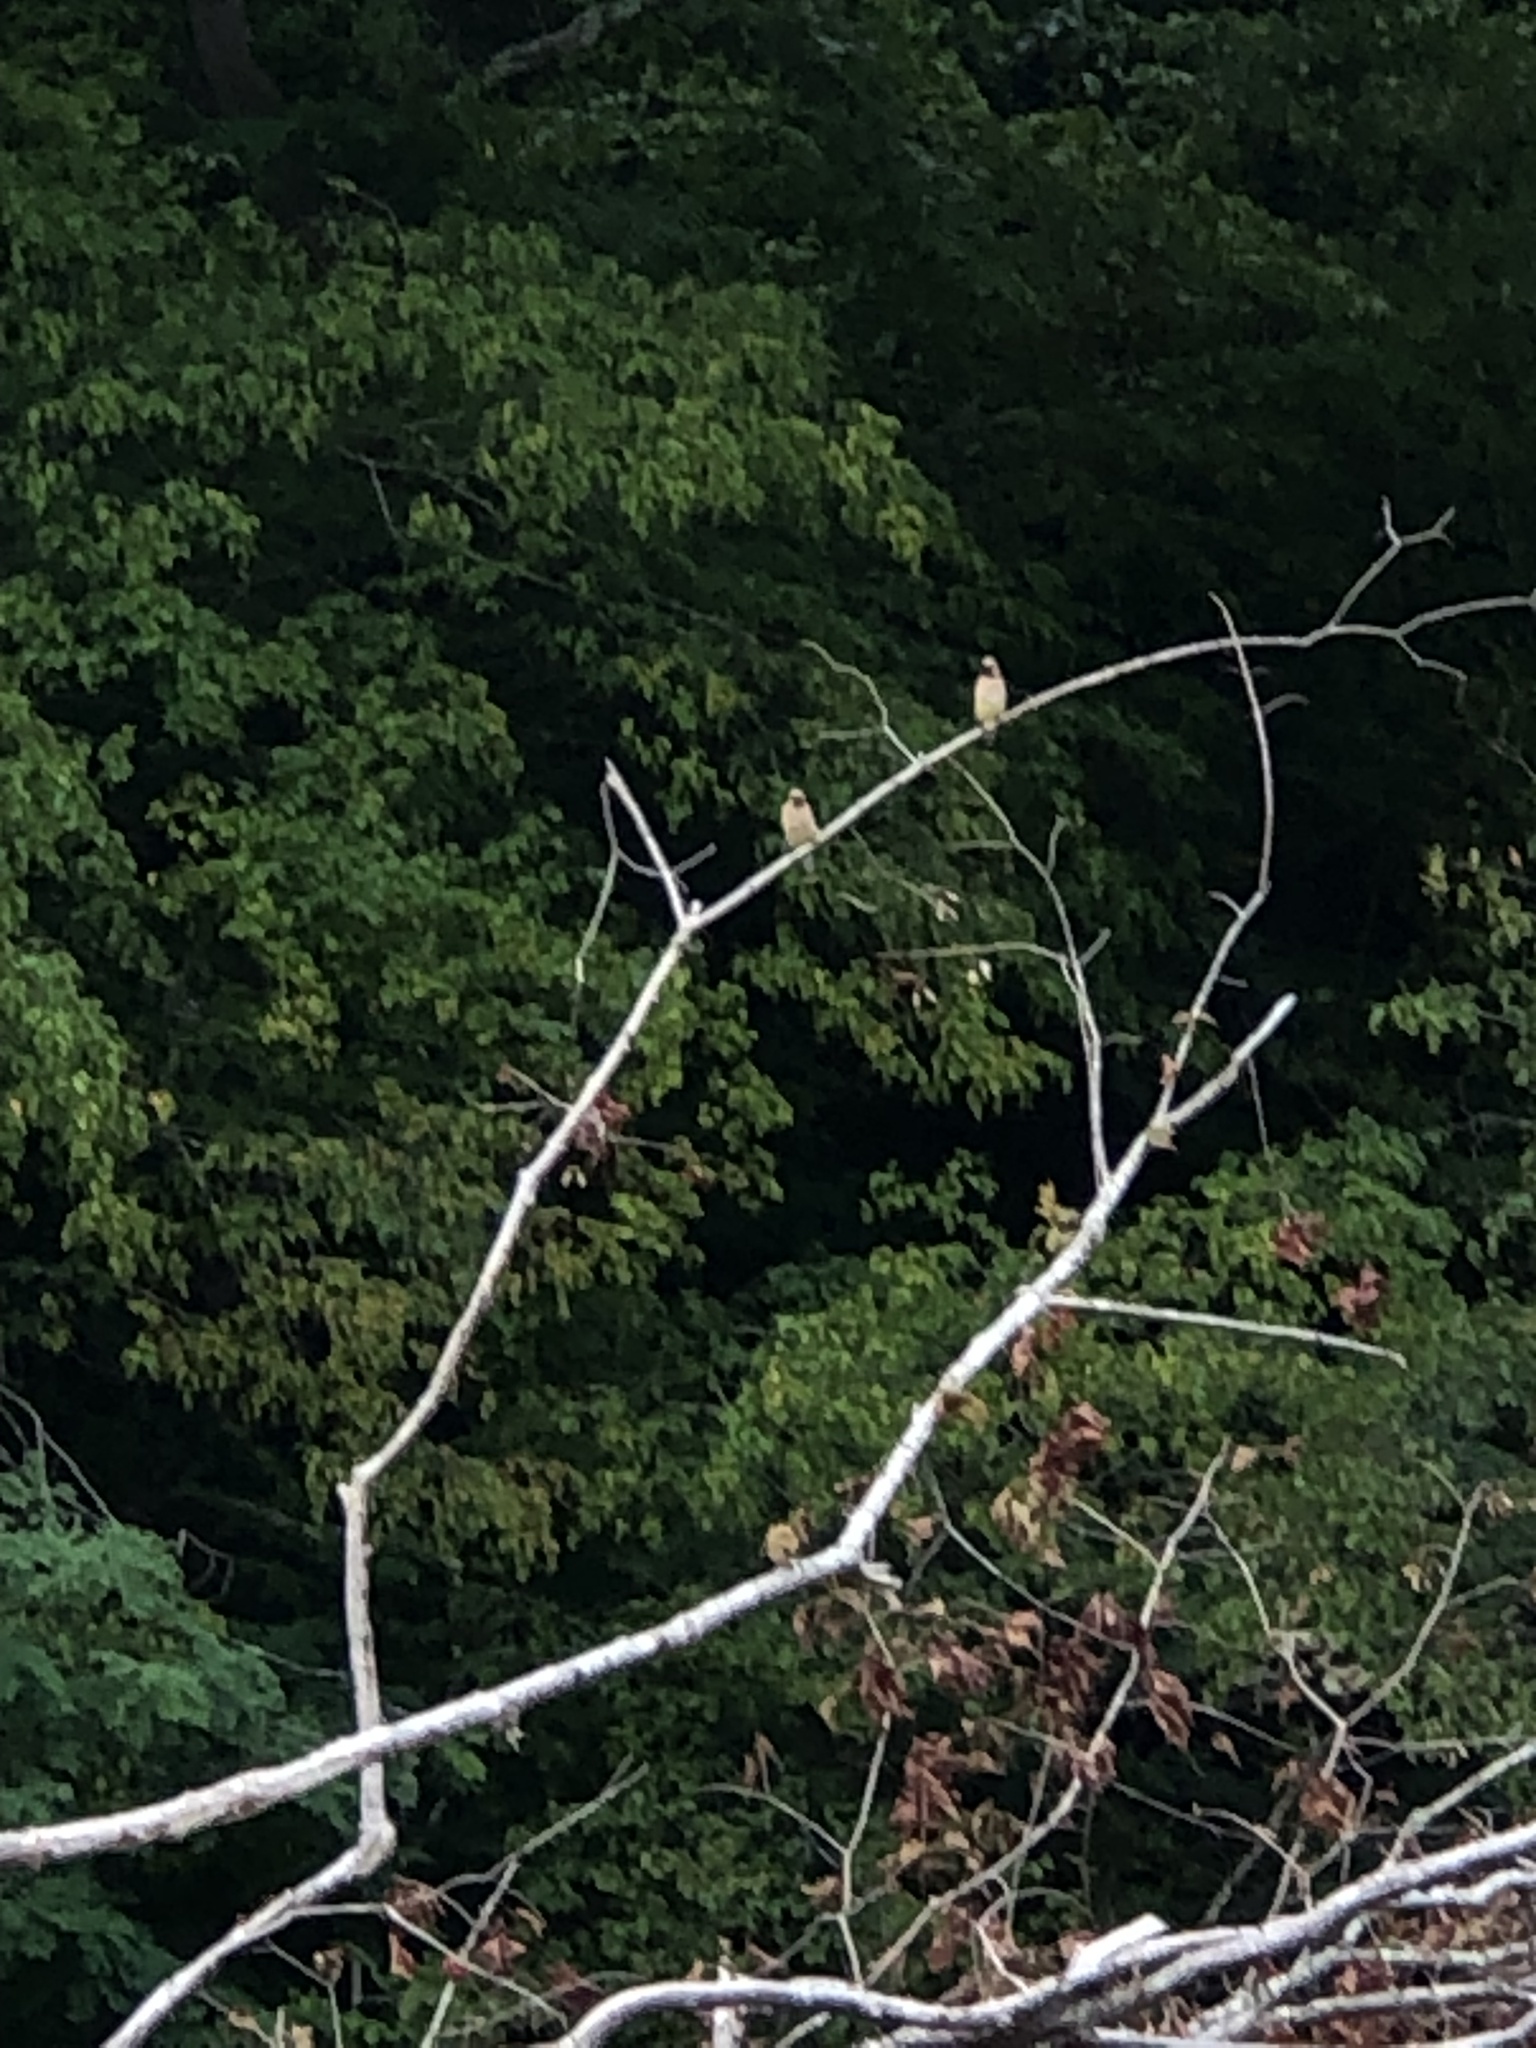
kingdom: Animalia
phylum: Chordata
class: Aves
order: Passeriformes
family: Bombycillidae
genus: Bombycilla
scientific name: Bombycilla cedrorum
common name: Cedar waxwing
